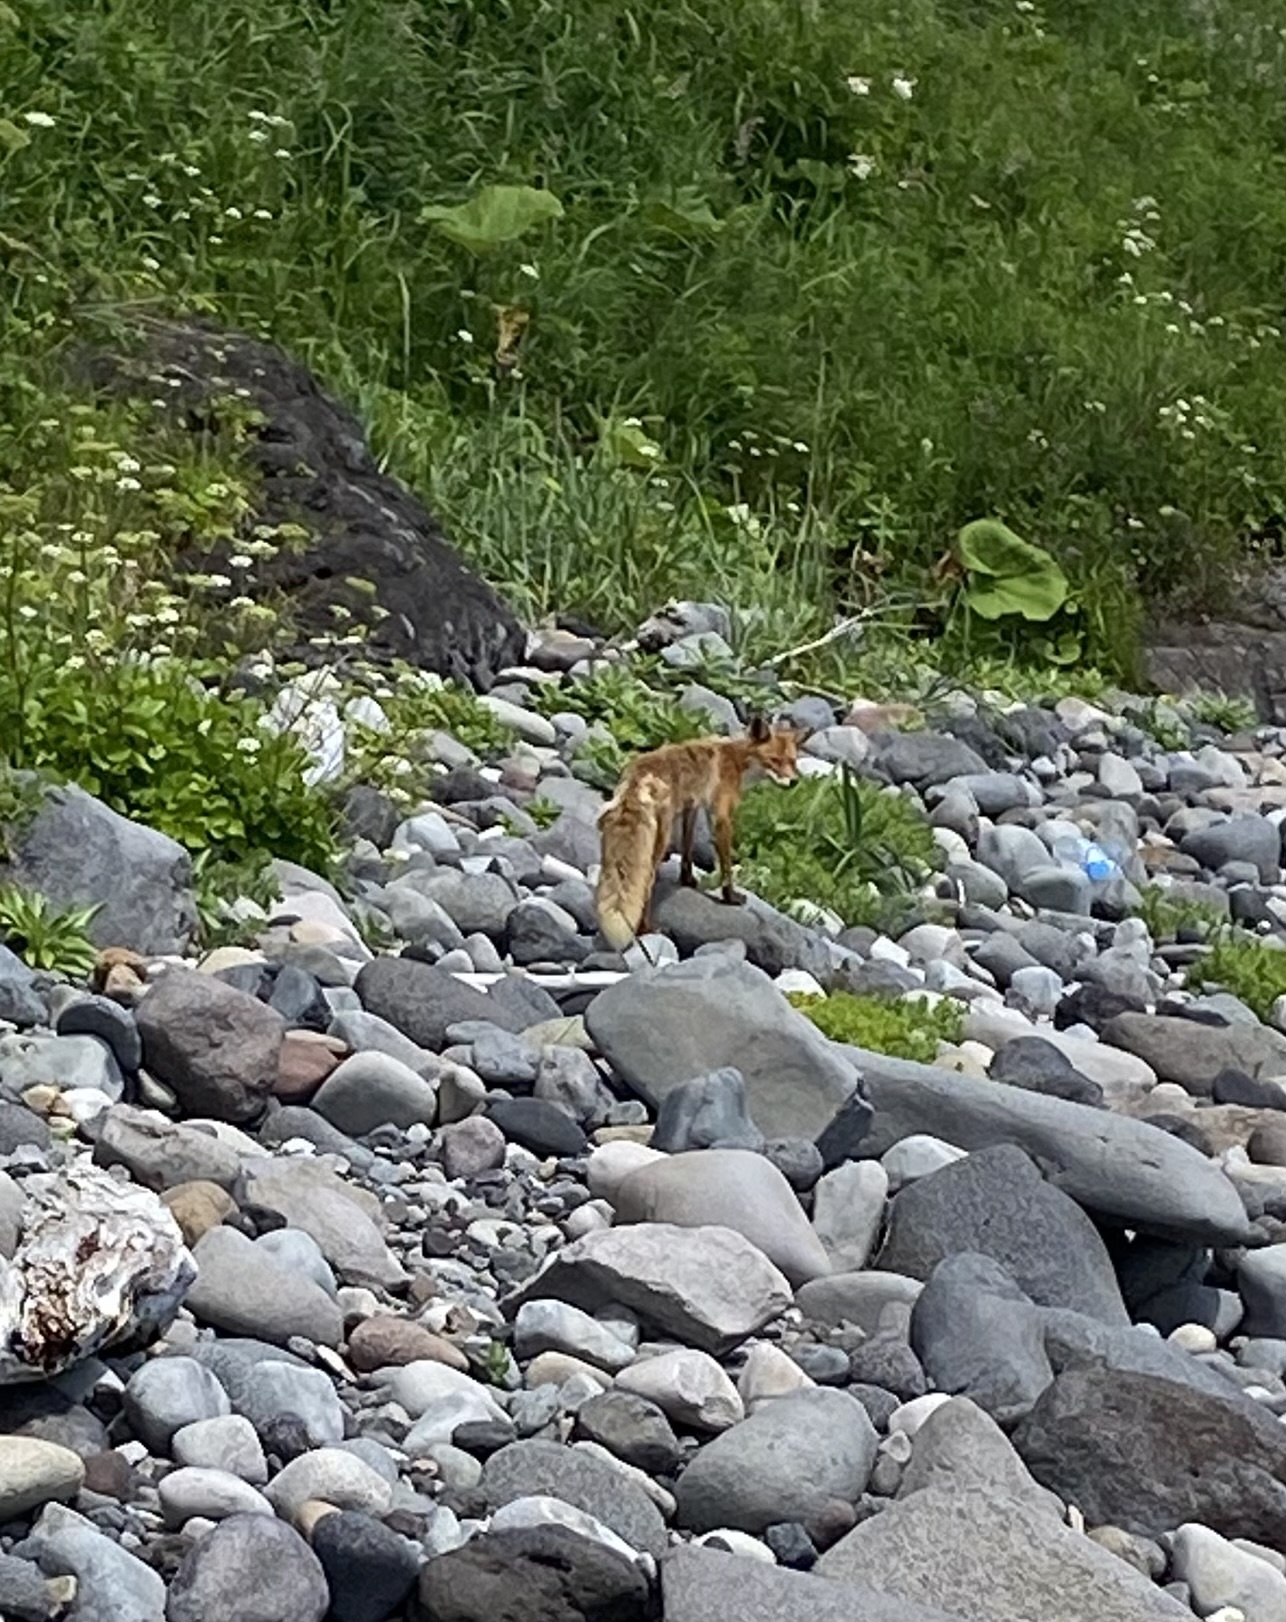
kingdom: Animalia
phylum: Chordata
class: Mammalia
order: Carnivora
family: Canidae
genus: Vulpes
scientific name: Vulpes vulpes
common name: Red fox
